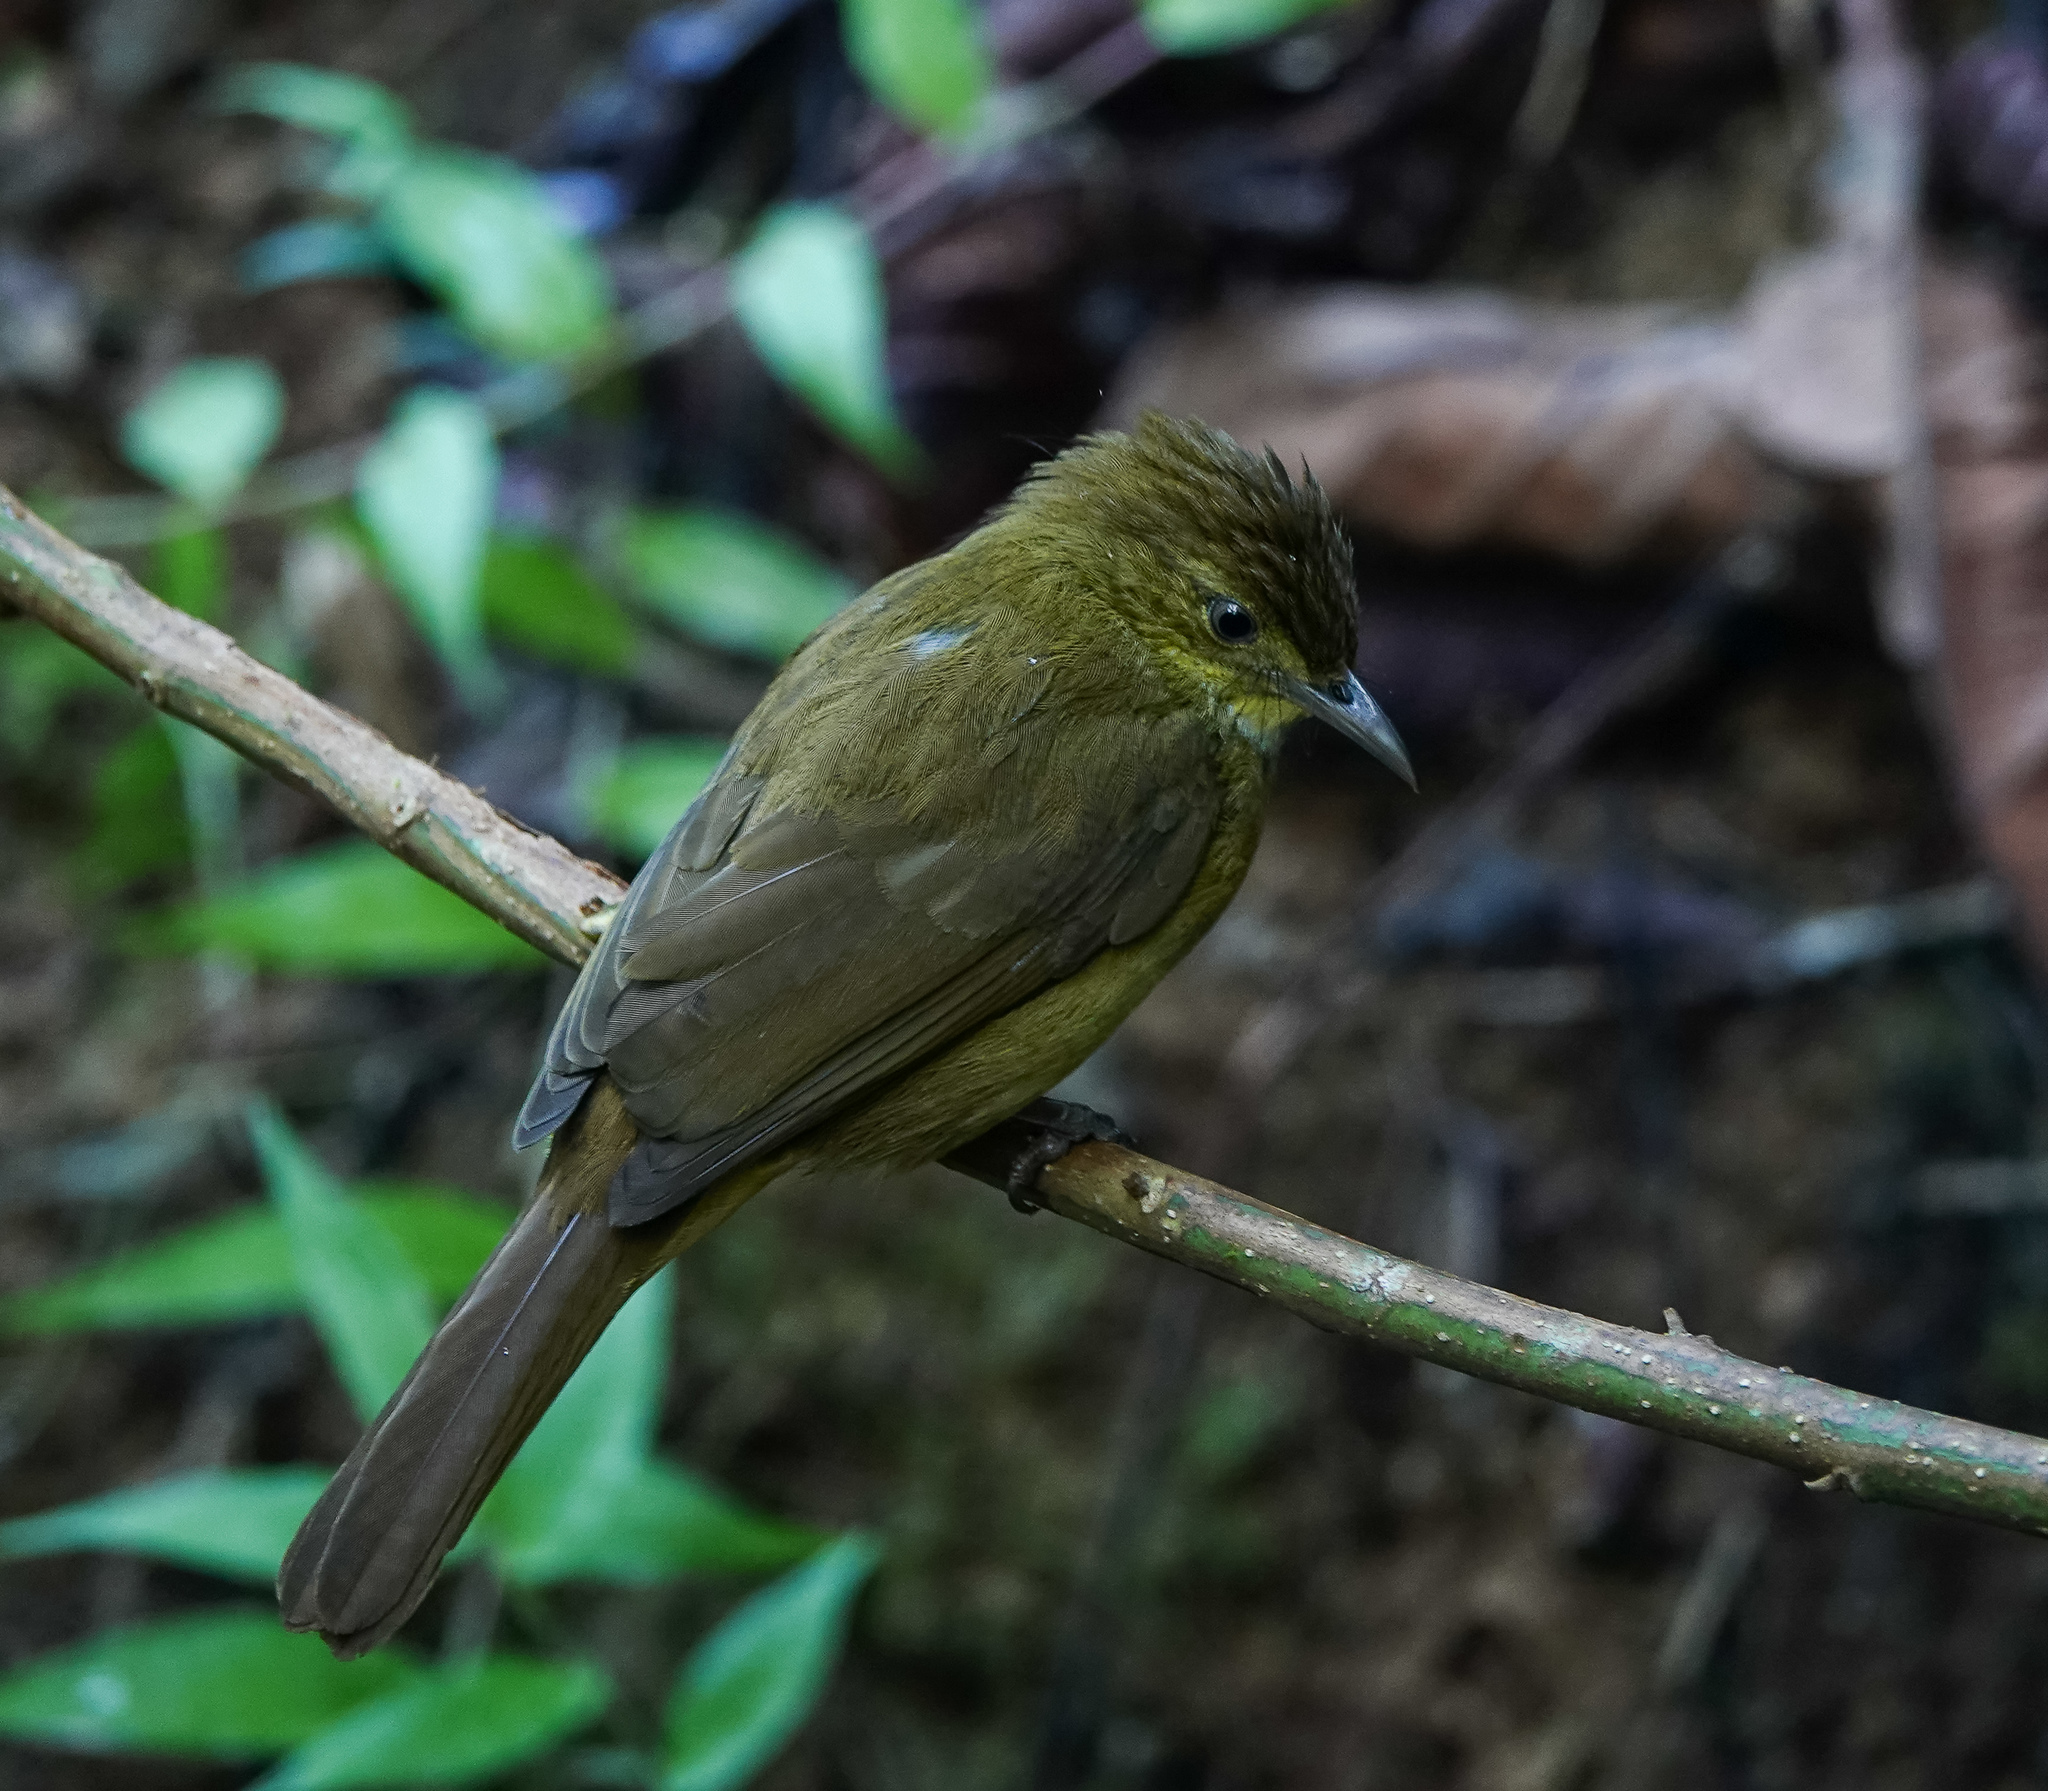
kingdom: Animalia
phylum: Chordata
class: Aves
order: Passeriformes
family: Pycnonotidae
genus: Iole
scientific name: Iole virescens
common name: Olive bulbul
